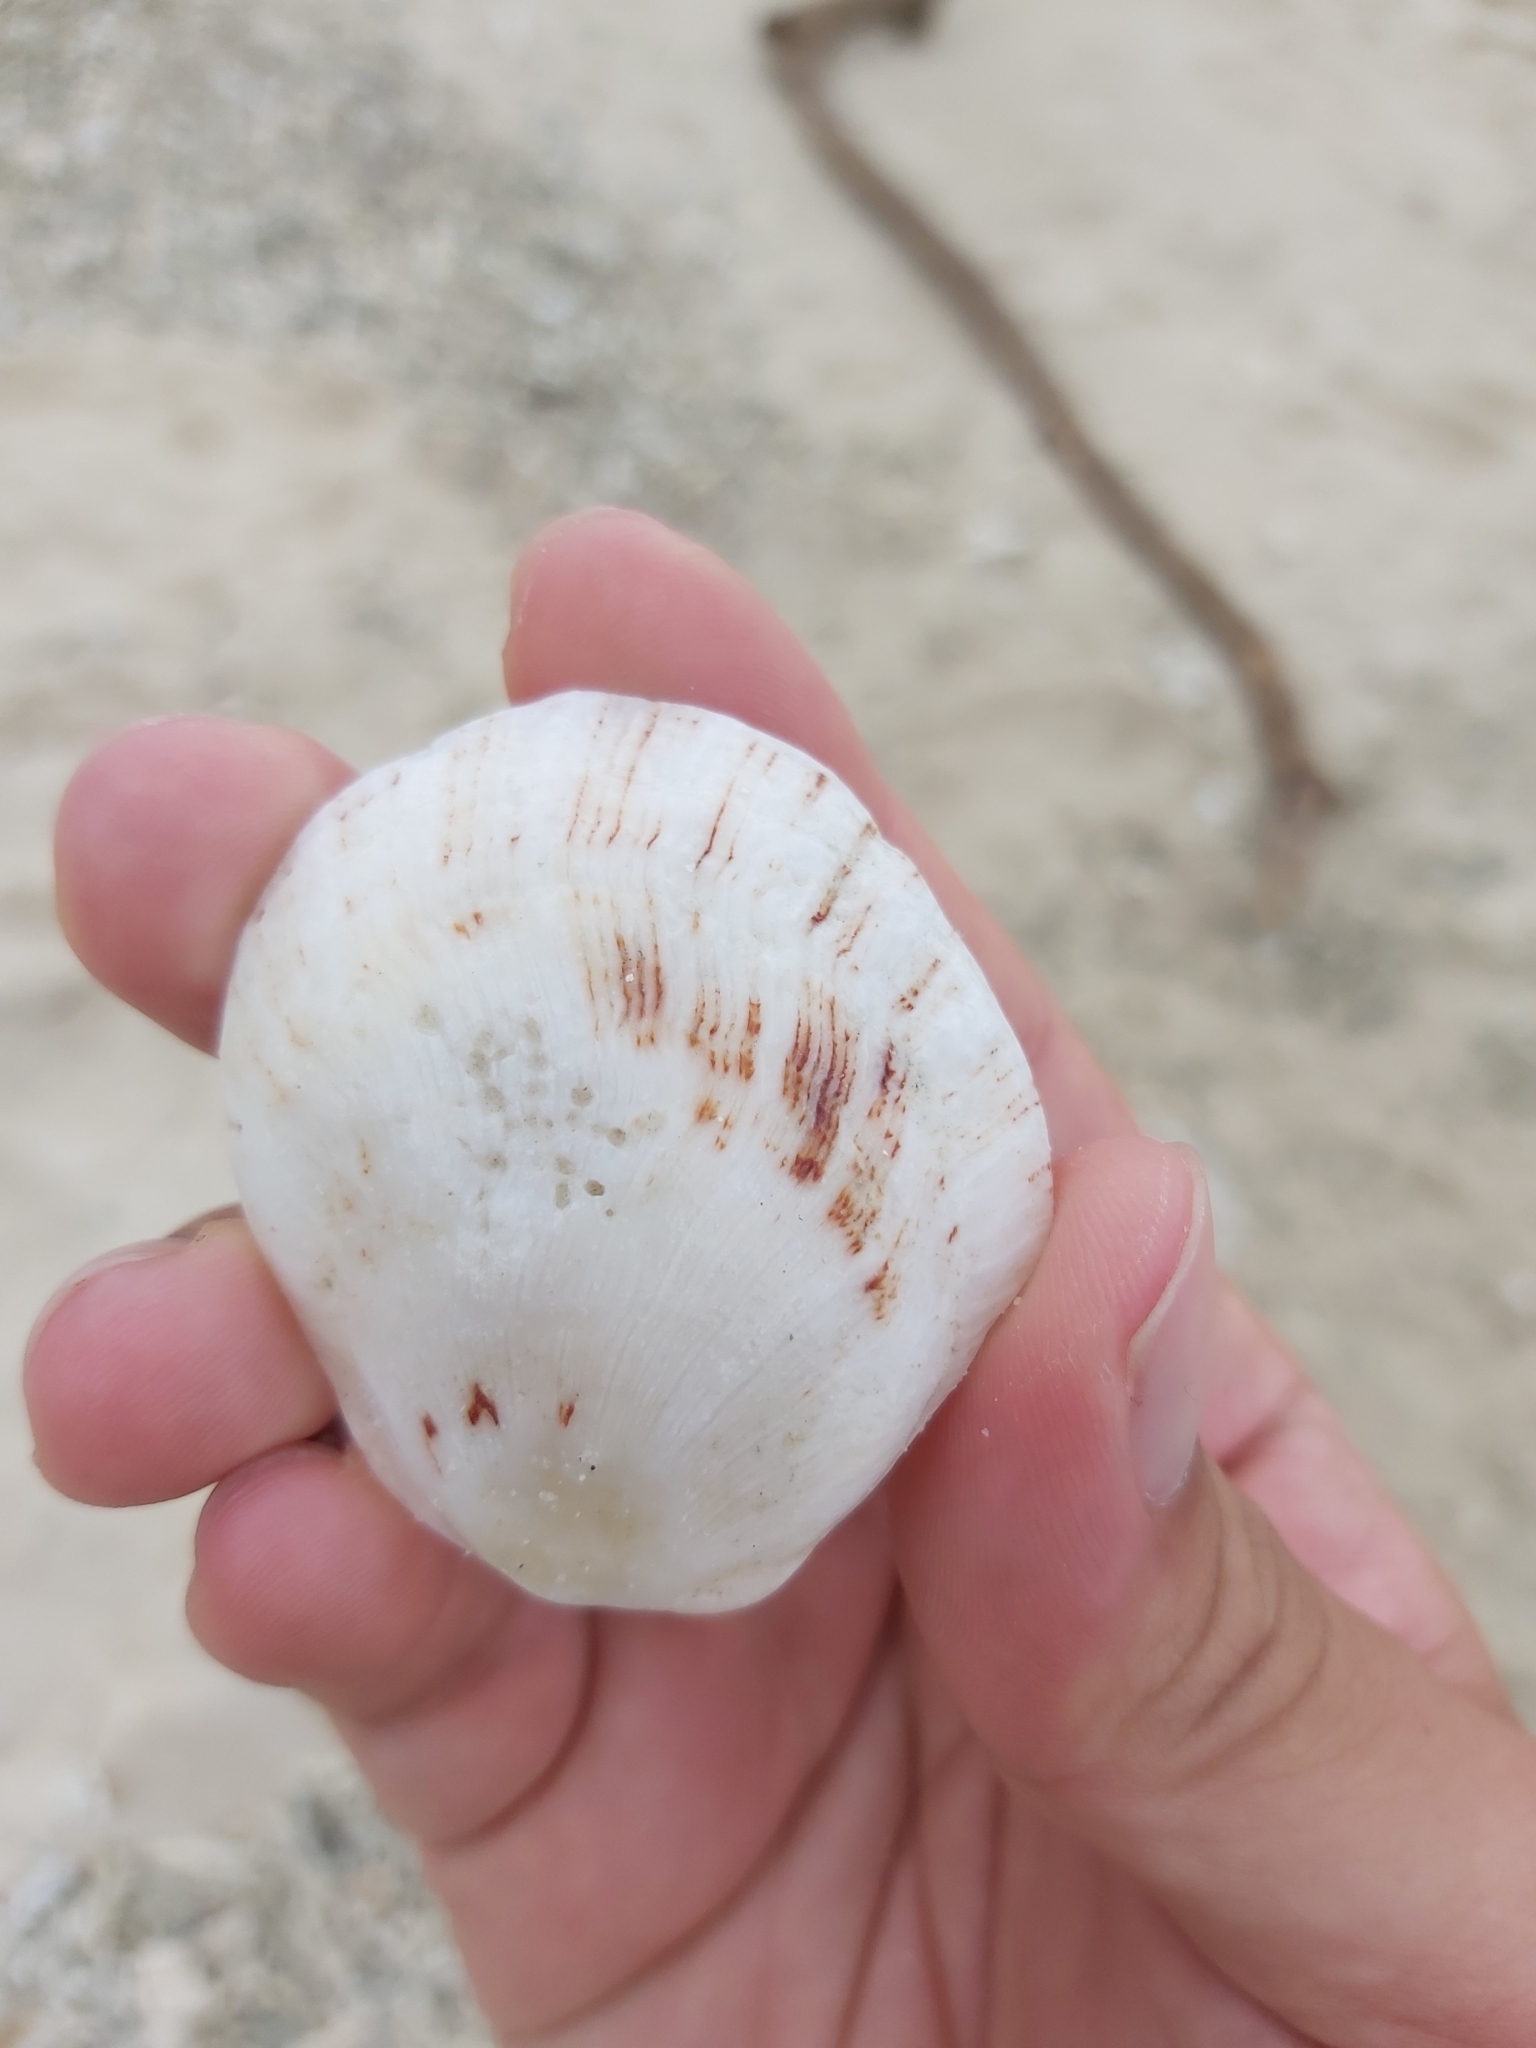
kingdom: Animalia
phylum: Mollusca
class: Bivalvia
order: Pectinida
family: Spondylidae
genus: Spondylus
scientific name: Spondylus nicobaricus
